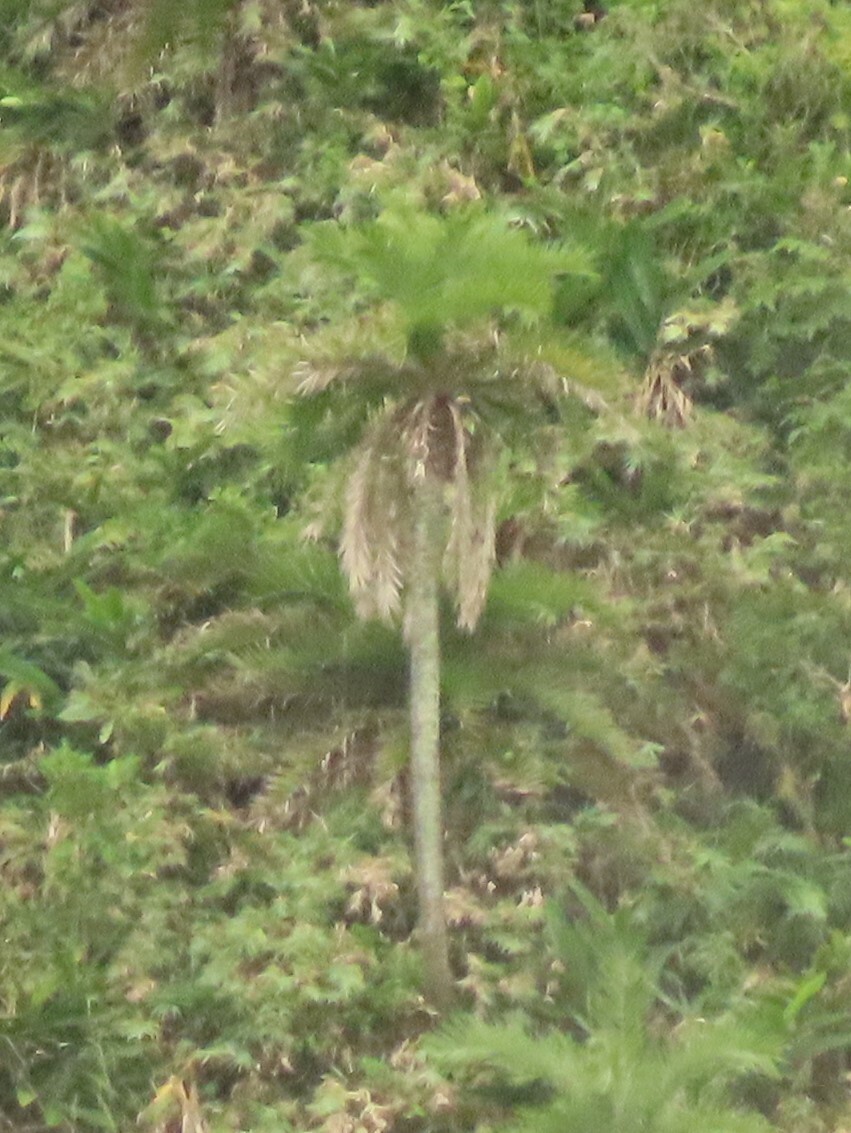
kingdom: Plantae
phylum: Tracheophyta
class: Liliopsida
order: Arecales
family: Arecaceae
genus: Phoenix
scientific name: Phoenix loureiroi
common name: Loureiro's palm
